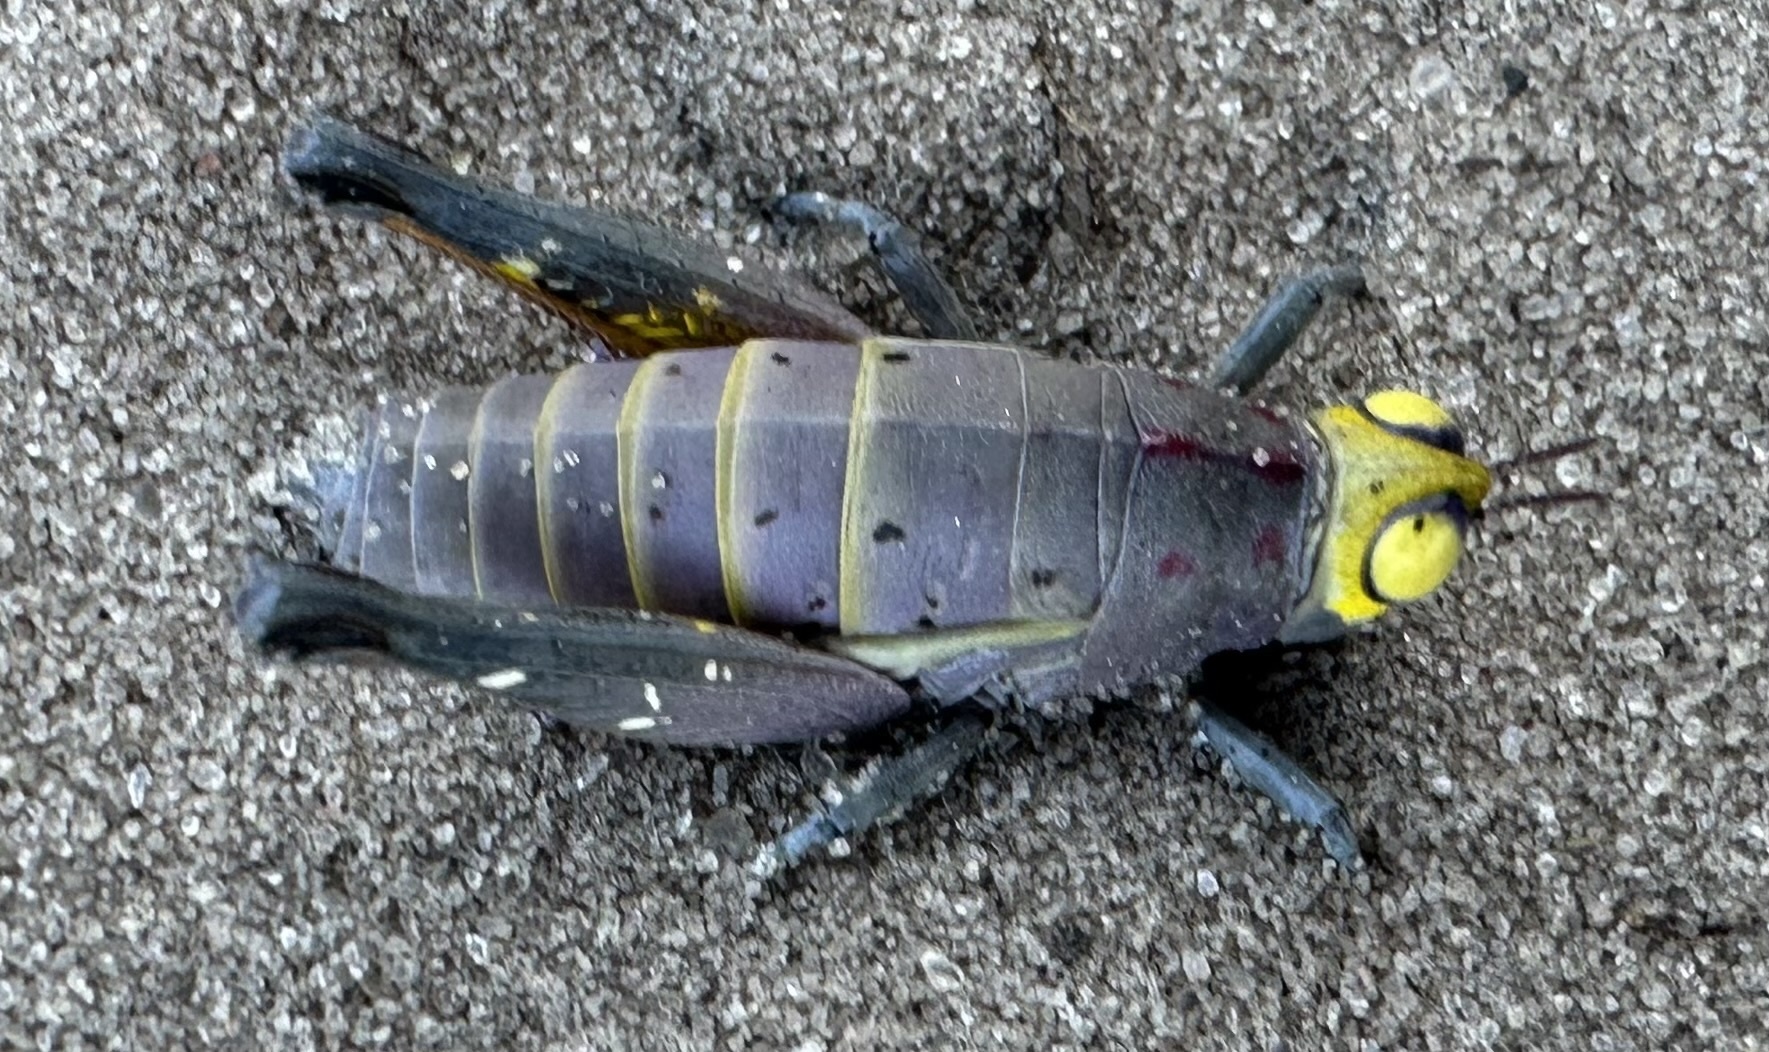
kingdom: Animalia
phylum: Arthropoda
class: Insecta
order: Orthoptera
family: Thericleidae
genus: Thericles
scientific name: Thericles obtusifrons
